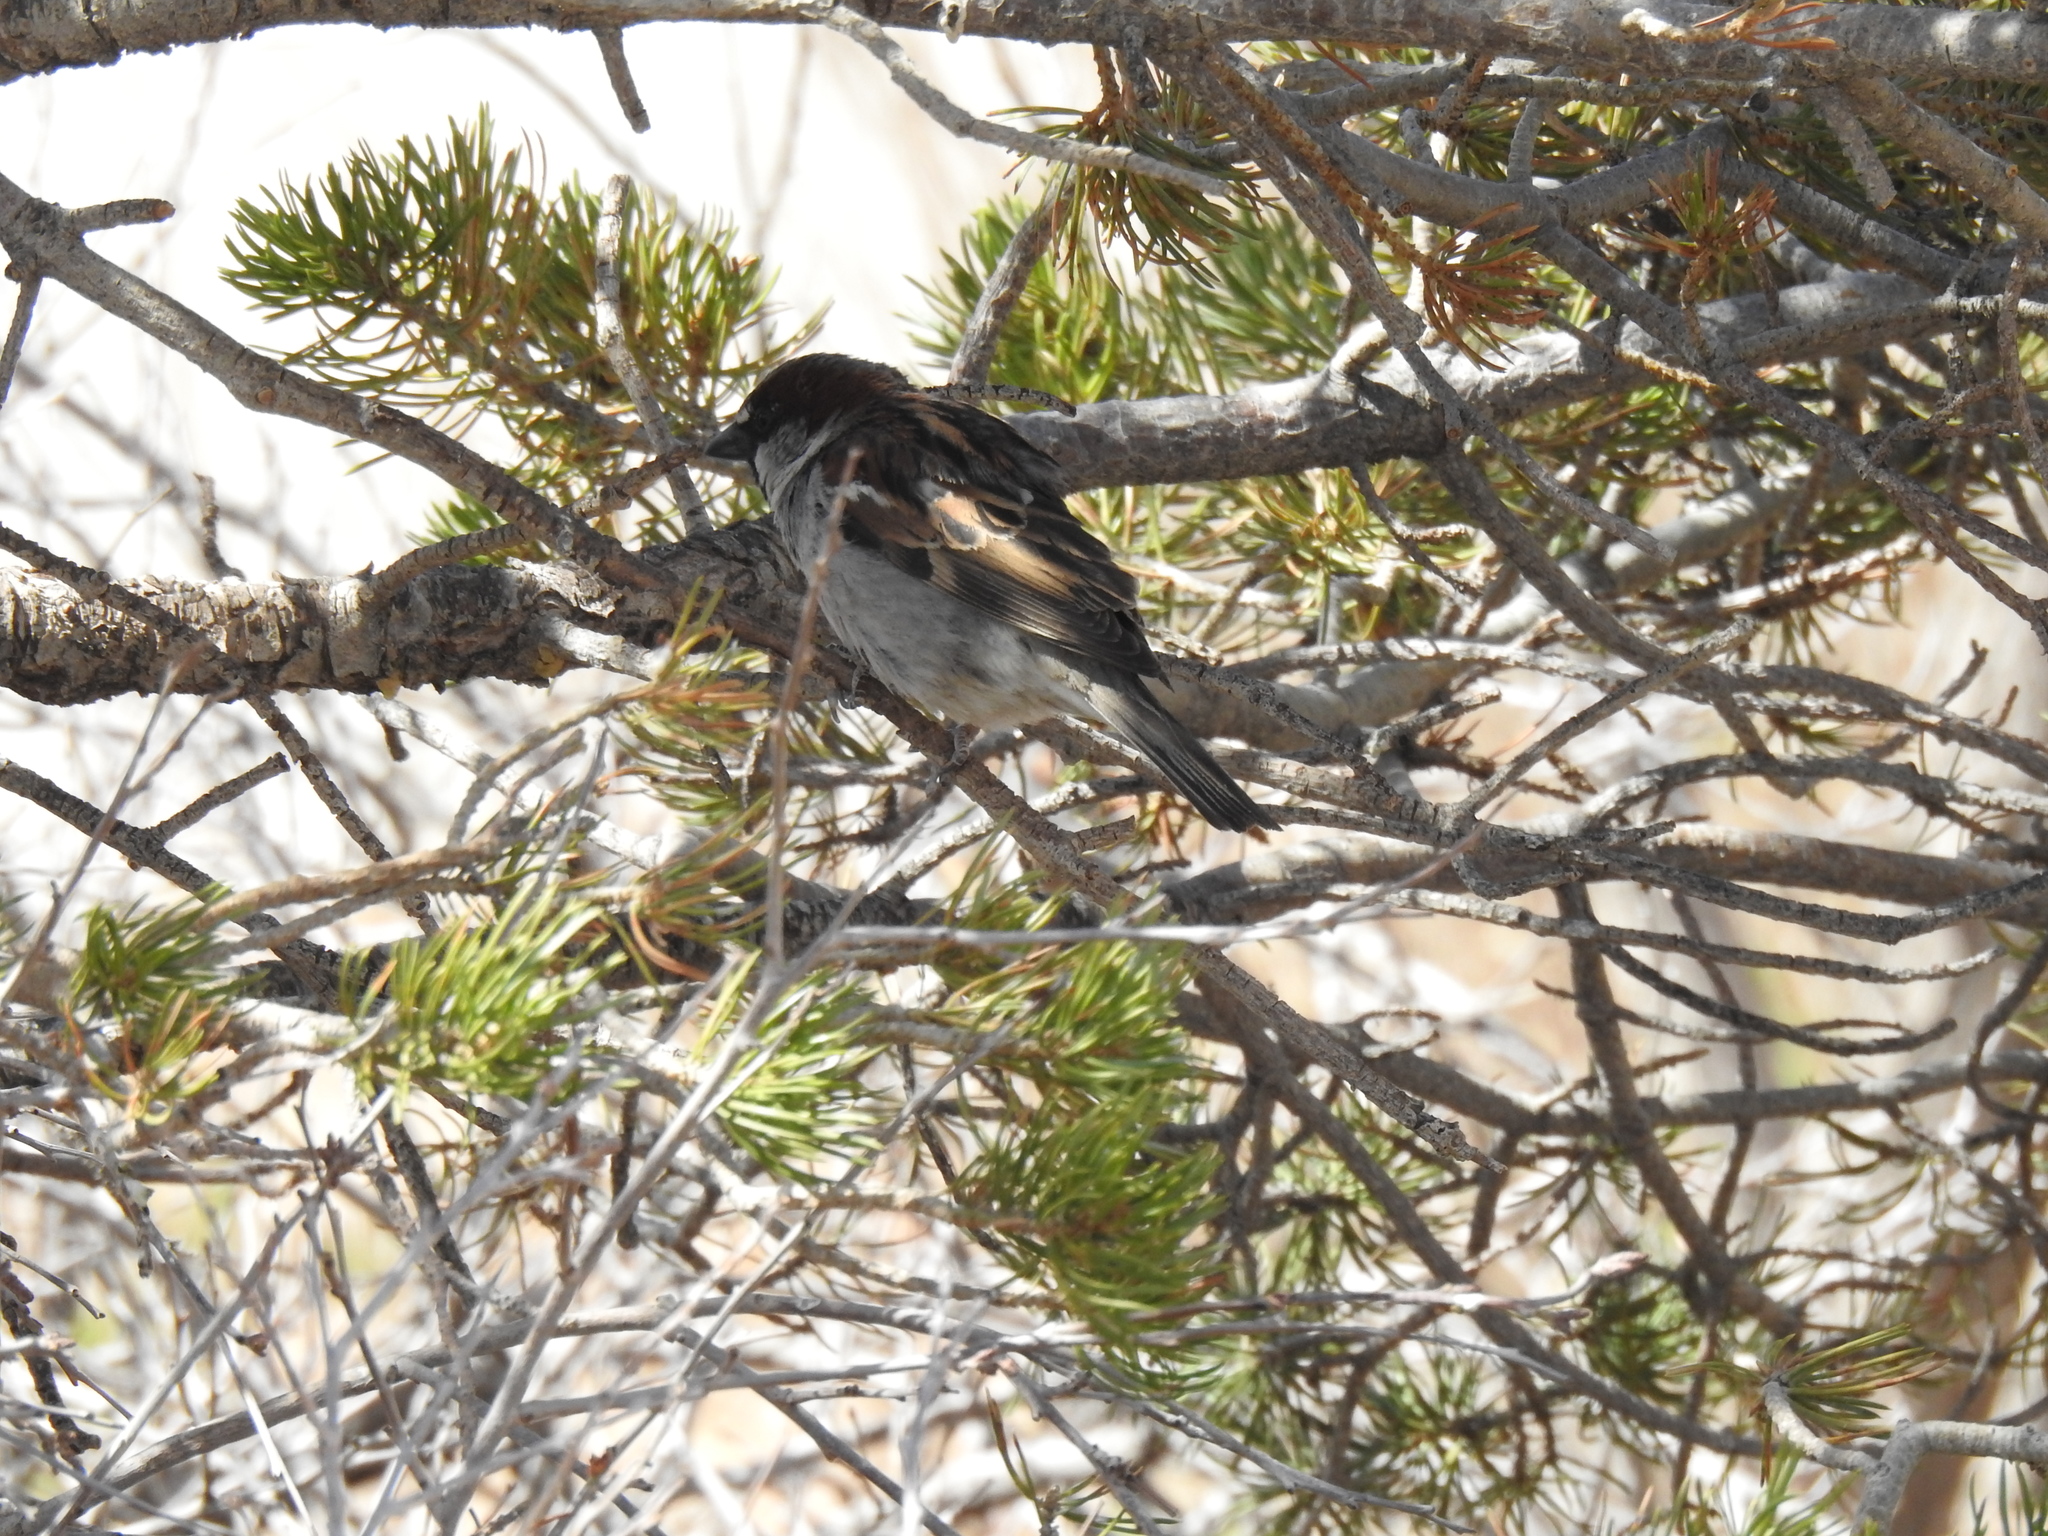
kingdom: Animalia
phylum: Chordata
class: Aves
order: Passeriformes
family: Passeridae
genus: Passer
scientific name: Passer domesticus
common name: House sparrow
